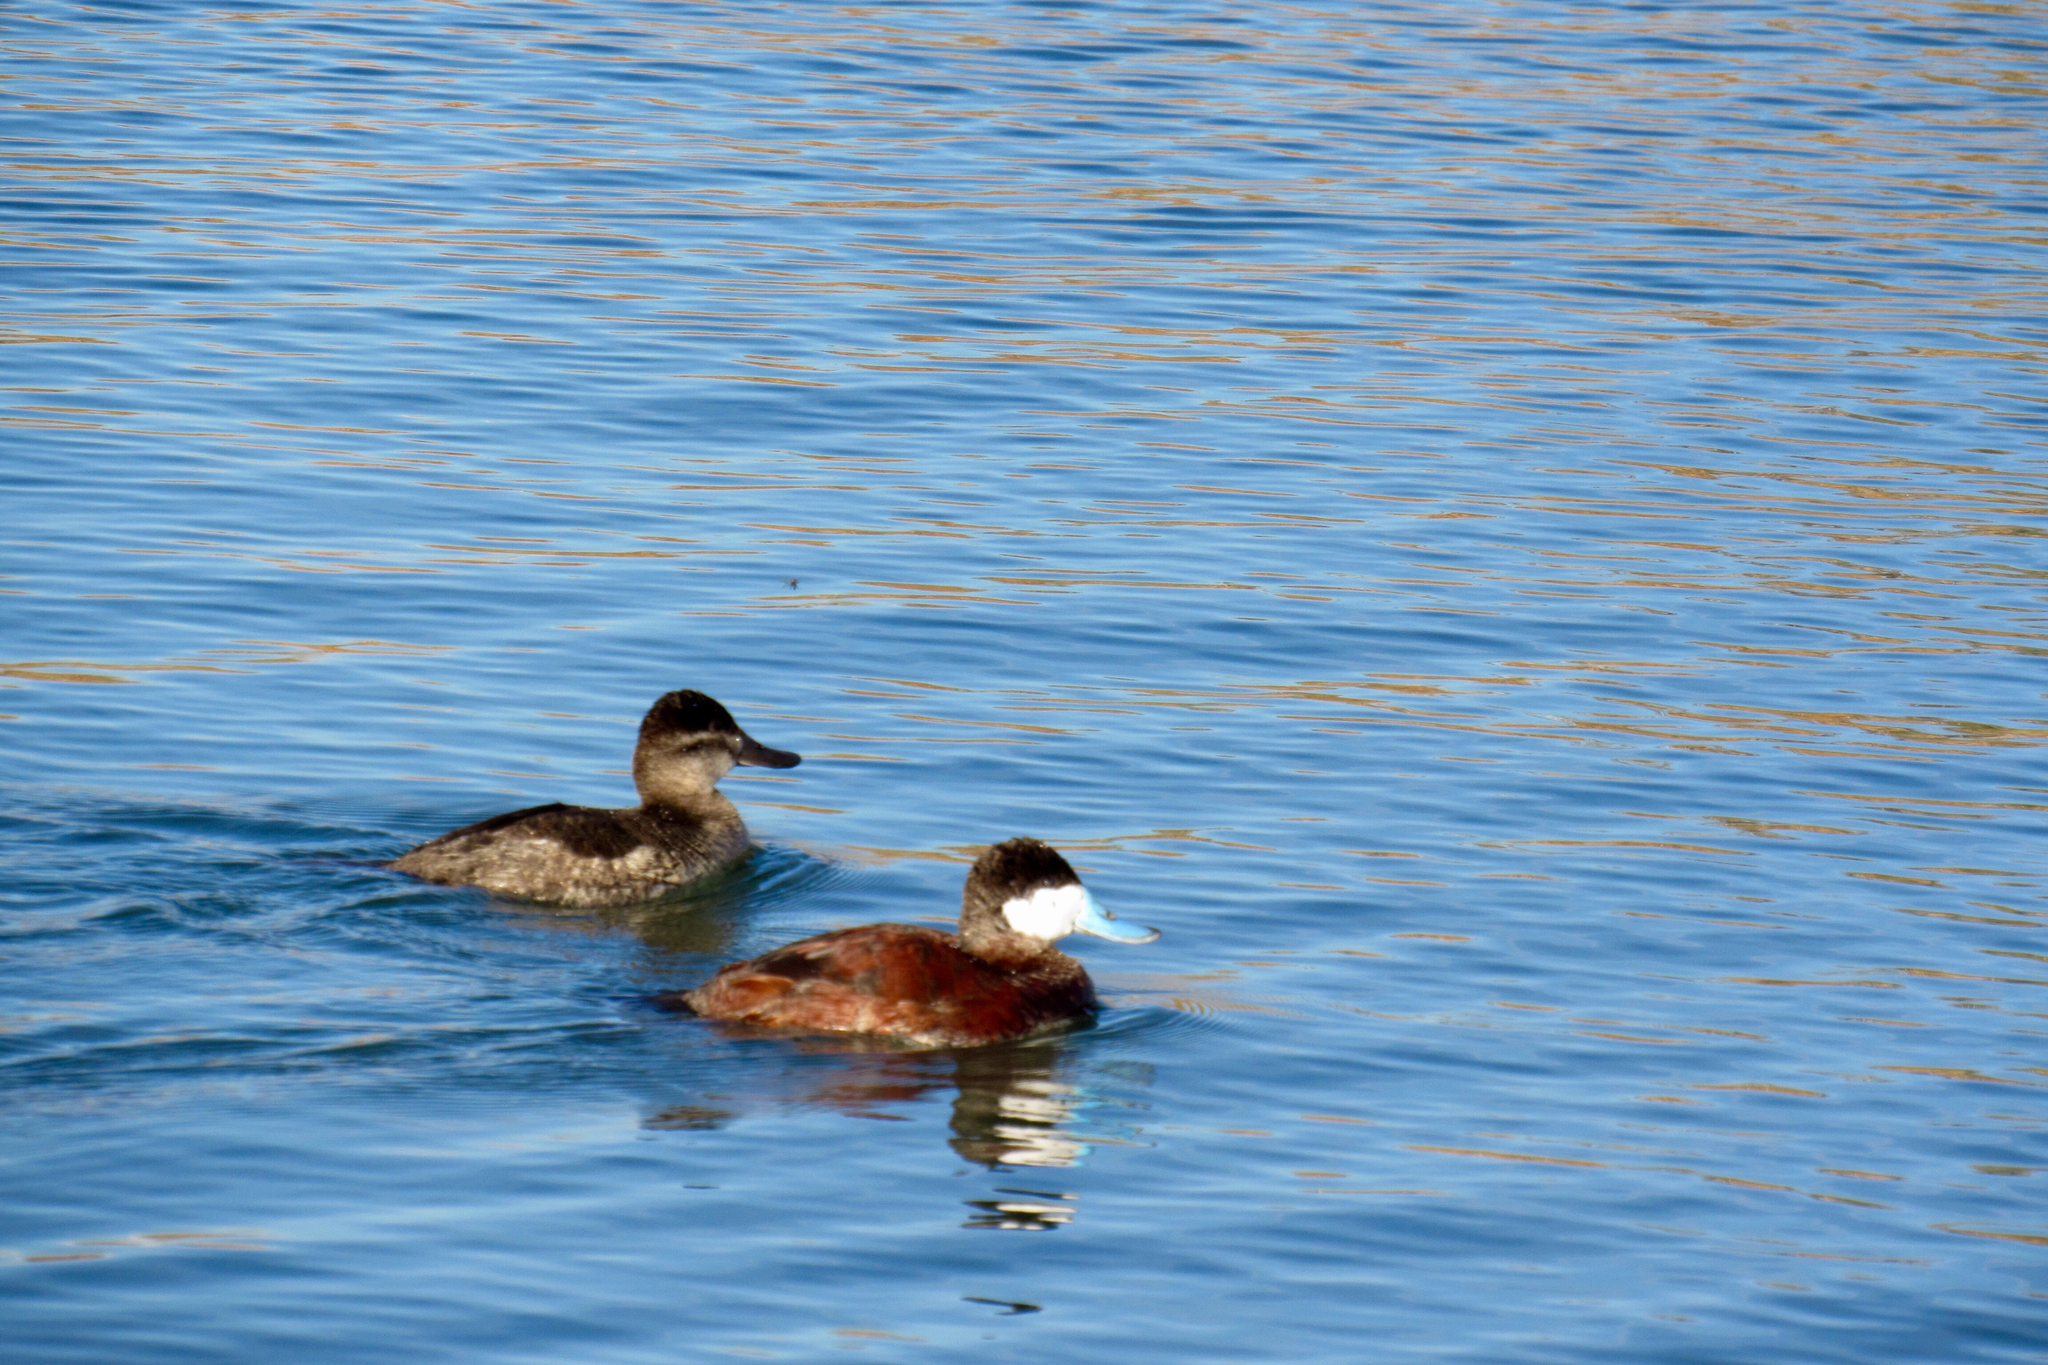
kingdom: Animalia
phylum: Chordata
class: Aves
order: Anseriformes
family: Anatidae
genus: Oxyura
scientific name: Oxyura jamaicensis
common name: Ruddy duck
